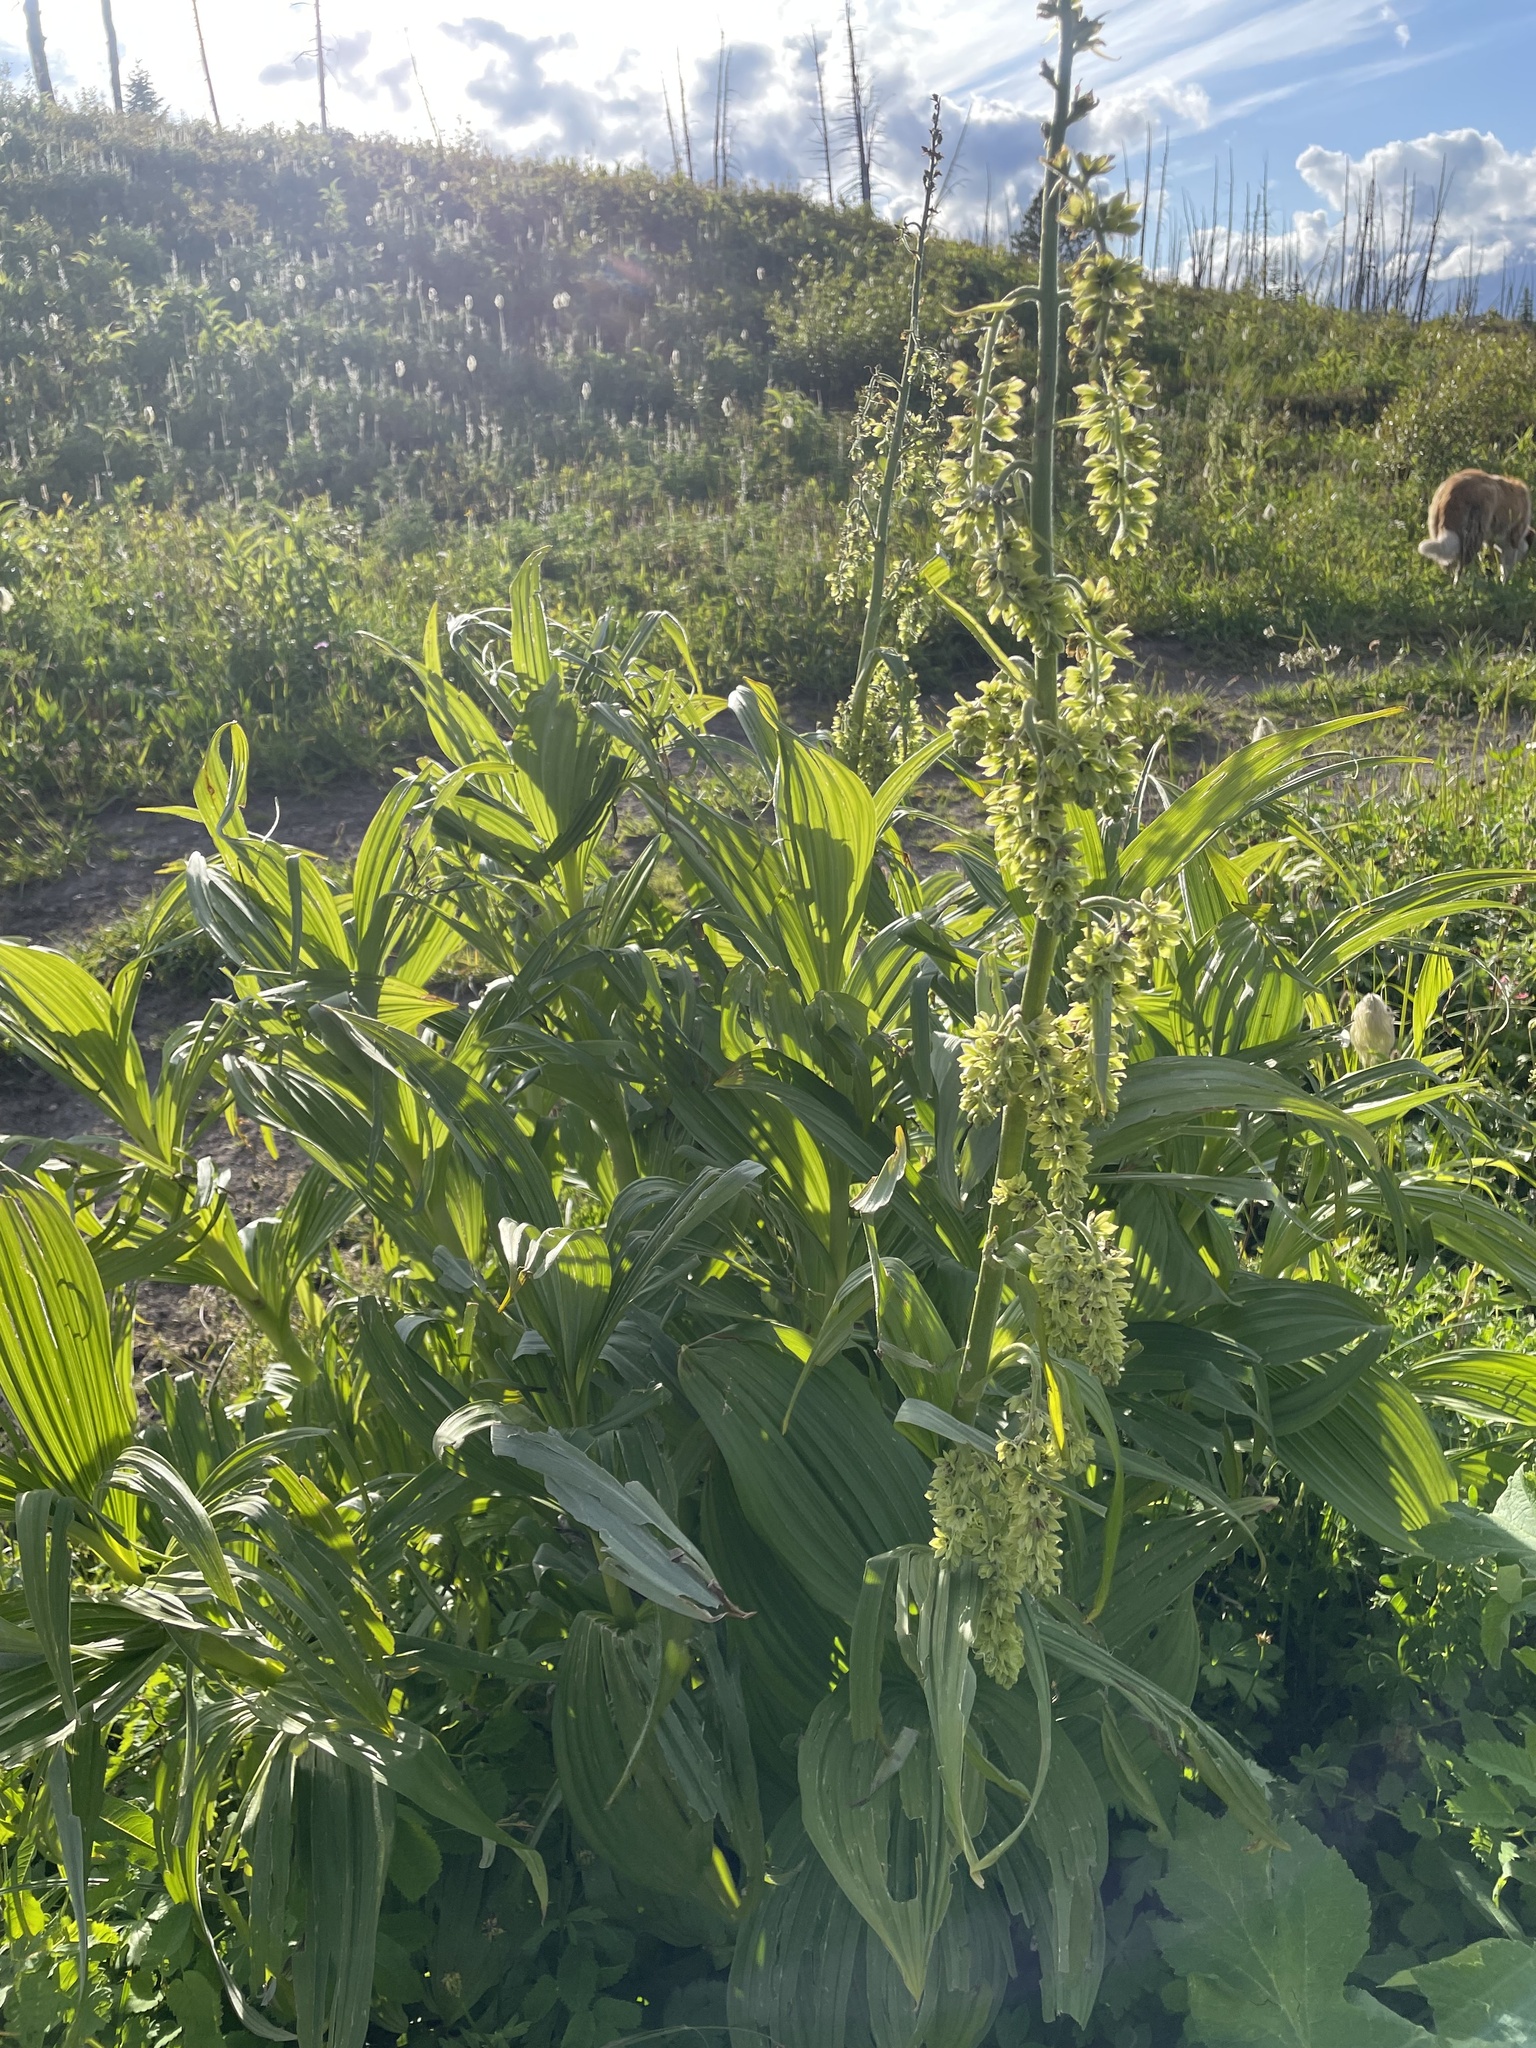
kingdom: Plantae
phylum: Tracheophyta
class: Liliopsida
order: Liliales
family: Melanthiaceae
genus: Veratrum
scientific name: Veratrum viride
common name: American false hellebore
